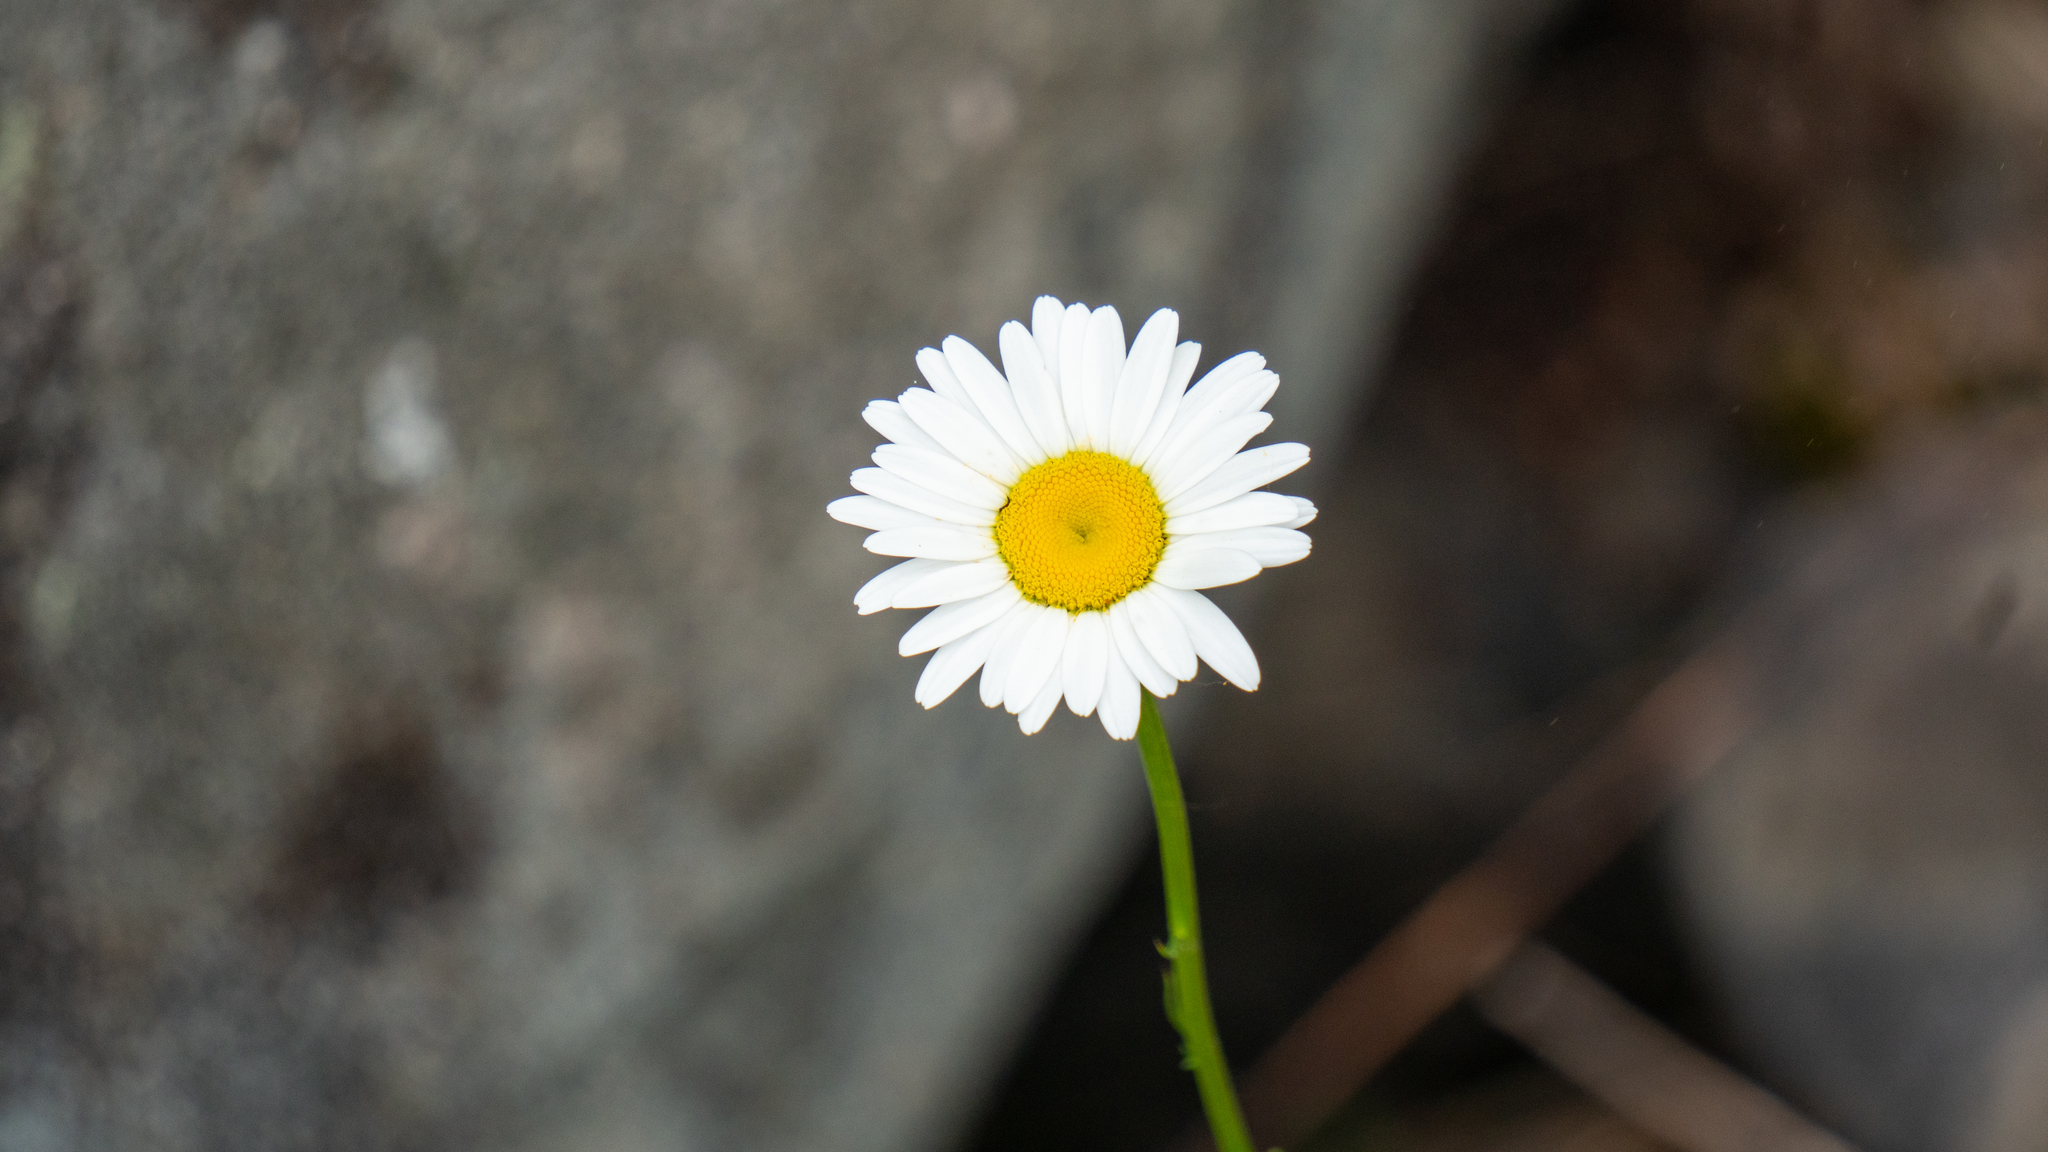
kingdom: Plantae
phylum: Tracheophyta
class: Magnoliopsida
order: Asterales
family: Asteraceae
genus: Leucanthemum
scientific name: Leucanthemum vulgare
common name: Oxeye daisy
